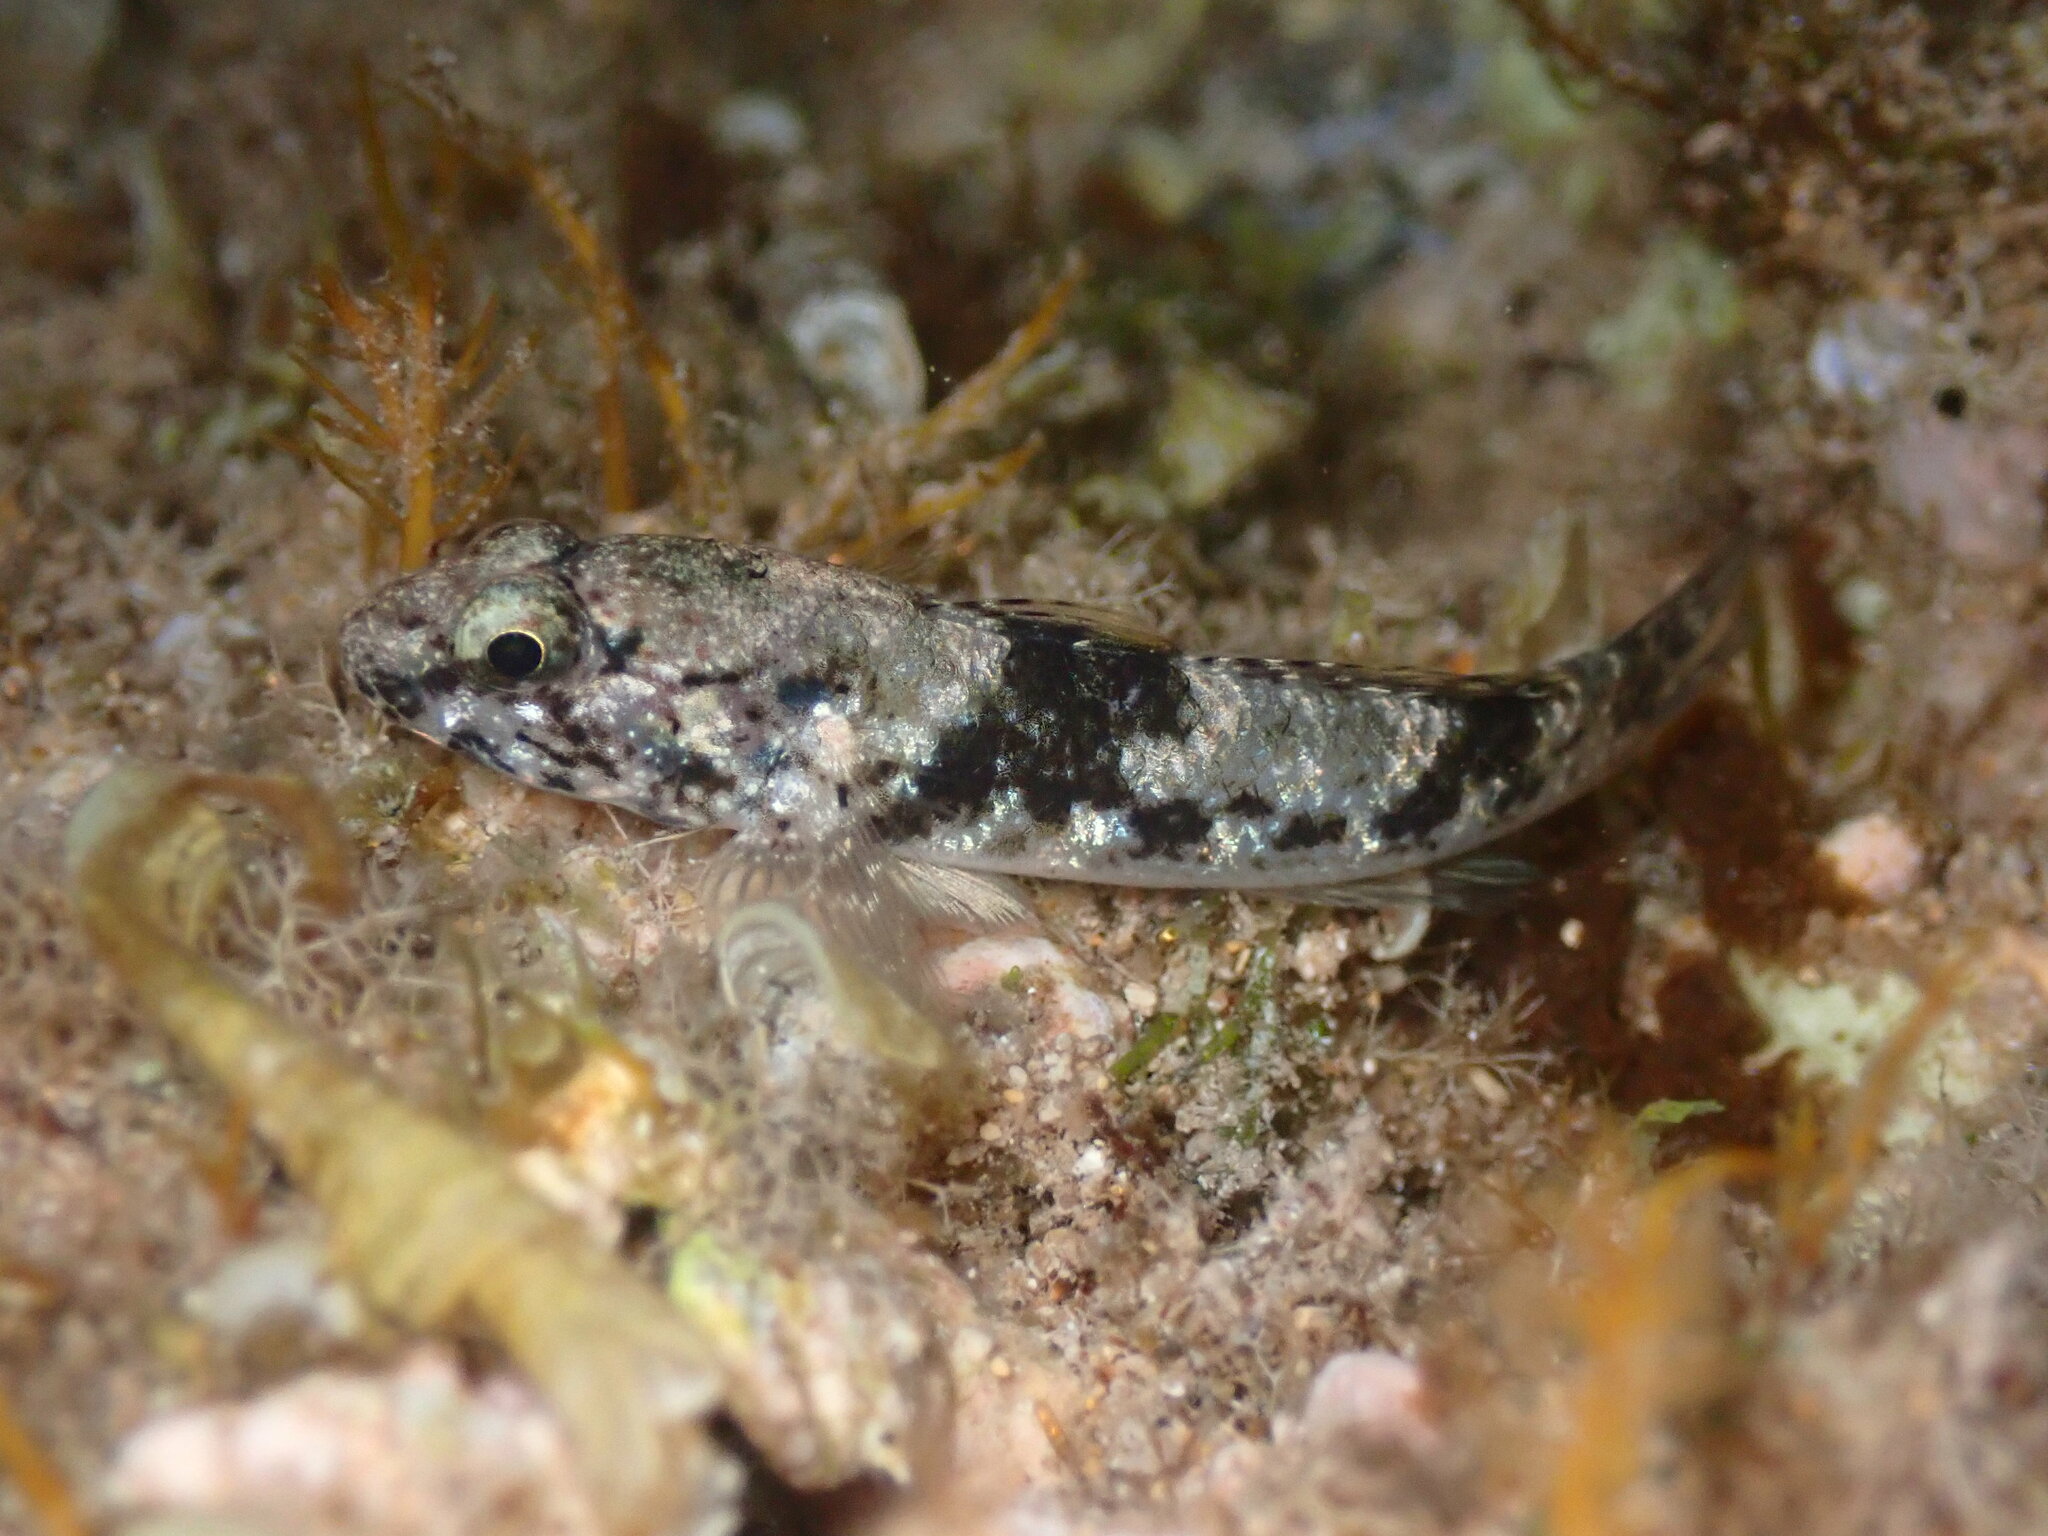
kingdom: Animalia
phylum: Chordata
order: Perciformes
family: Gobiidae
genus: Bathygobius
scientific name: Bathygobius coalitus
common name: Whitespotted goby
